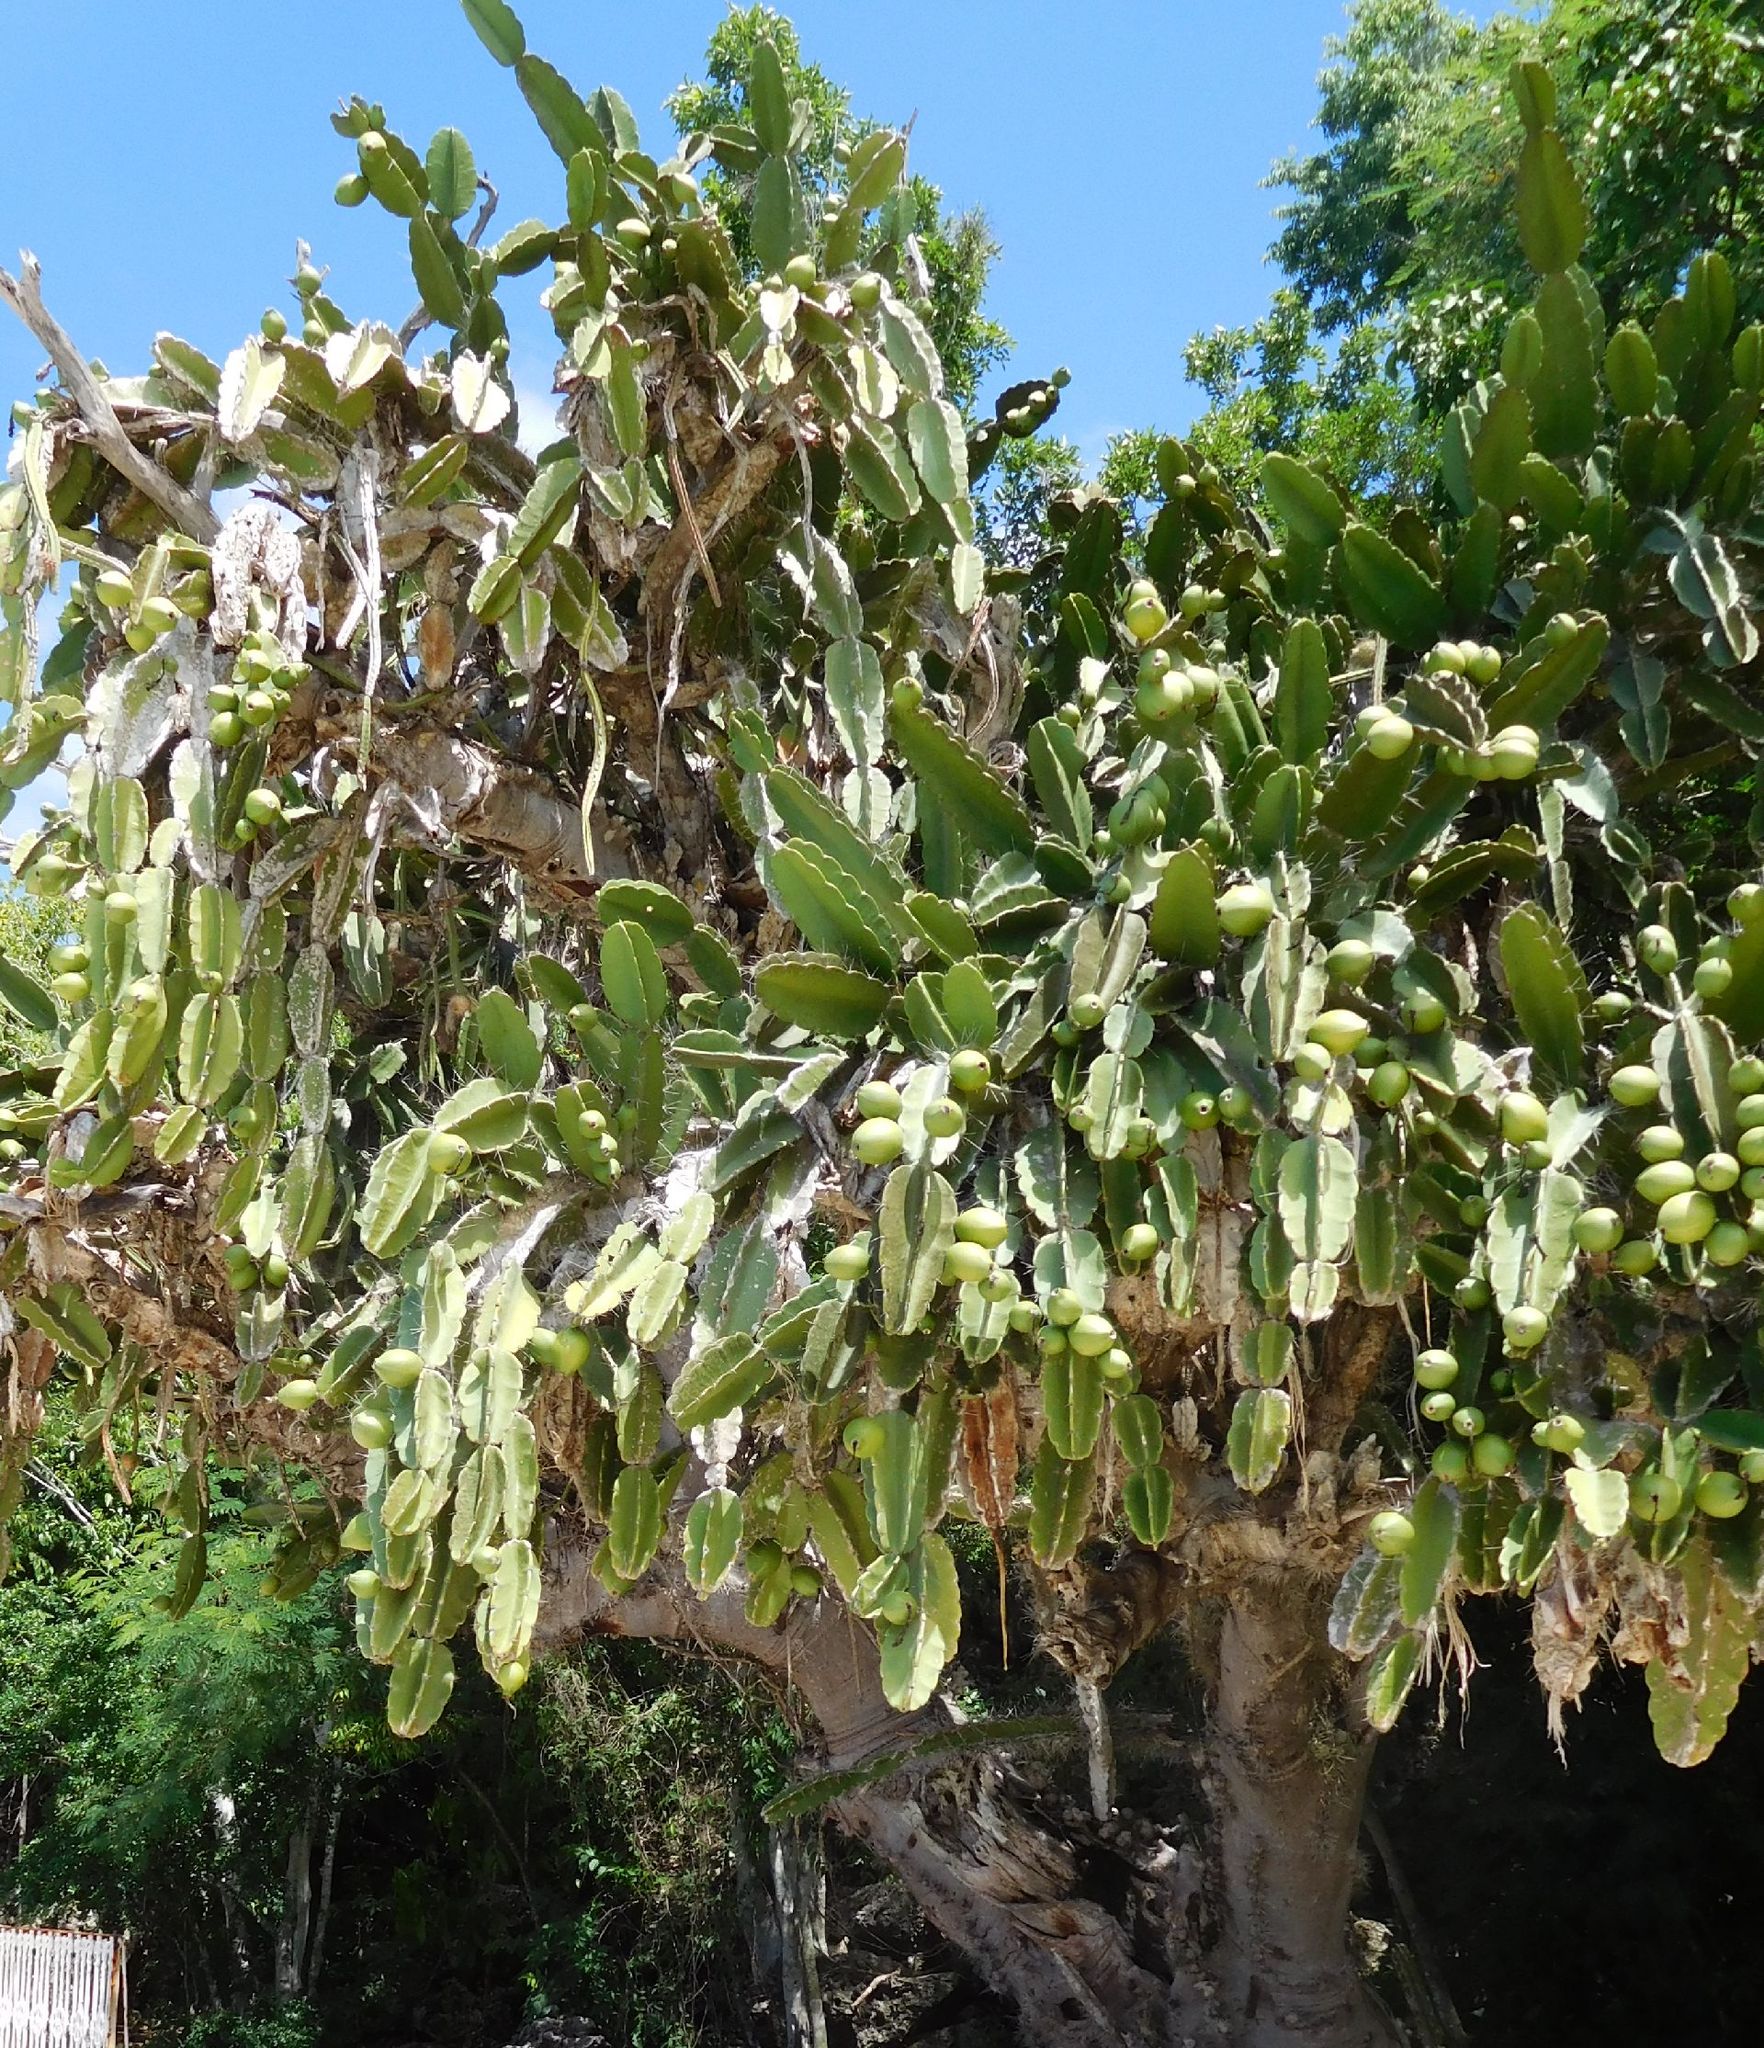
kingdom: Plantae
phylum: Tracheophyta
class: Magnoliopsida
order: Caryophyllales
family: Cactaceae
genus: Leptocereus
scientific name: Leptocereus nudiflorus
